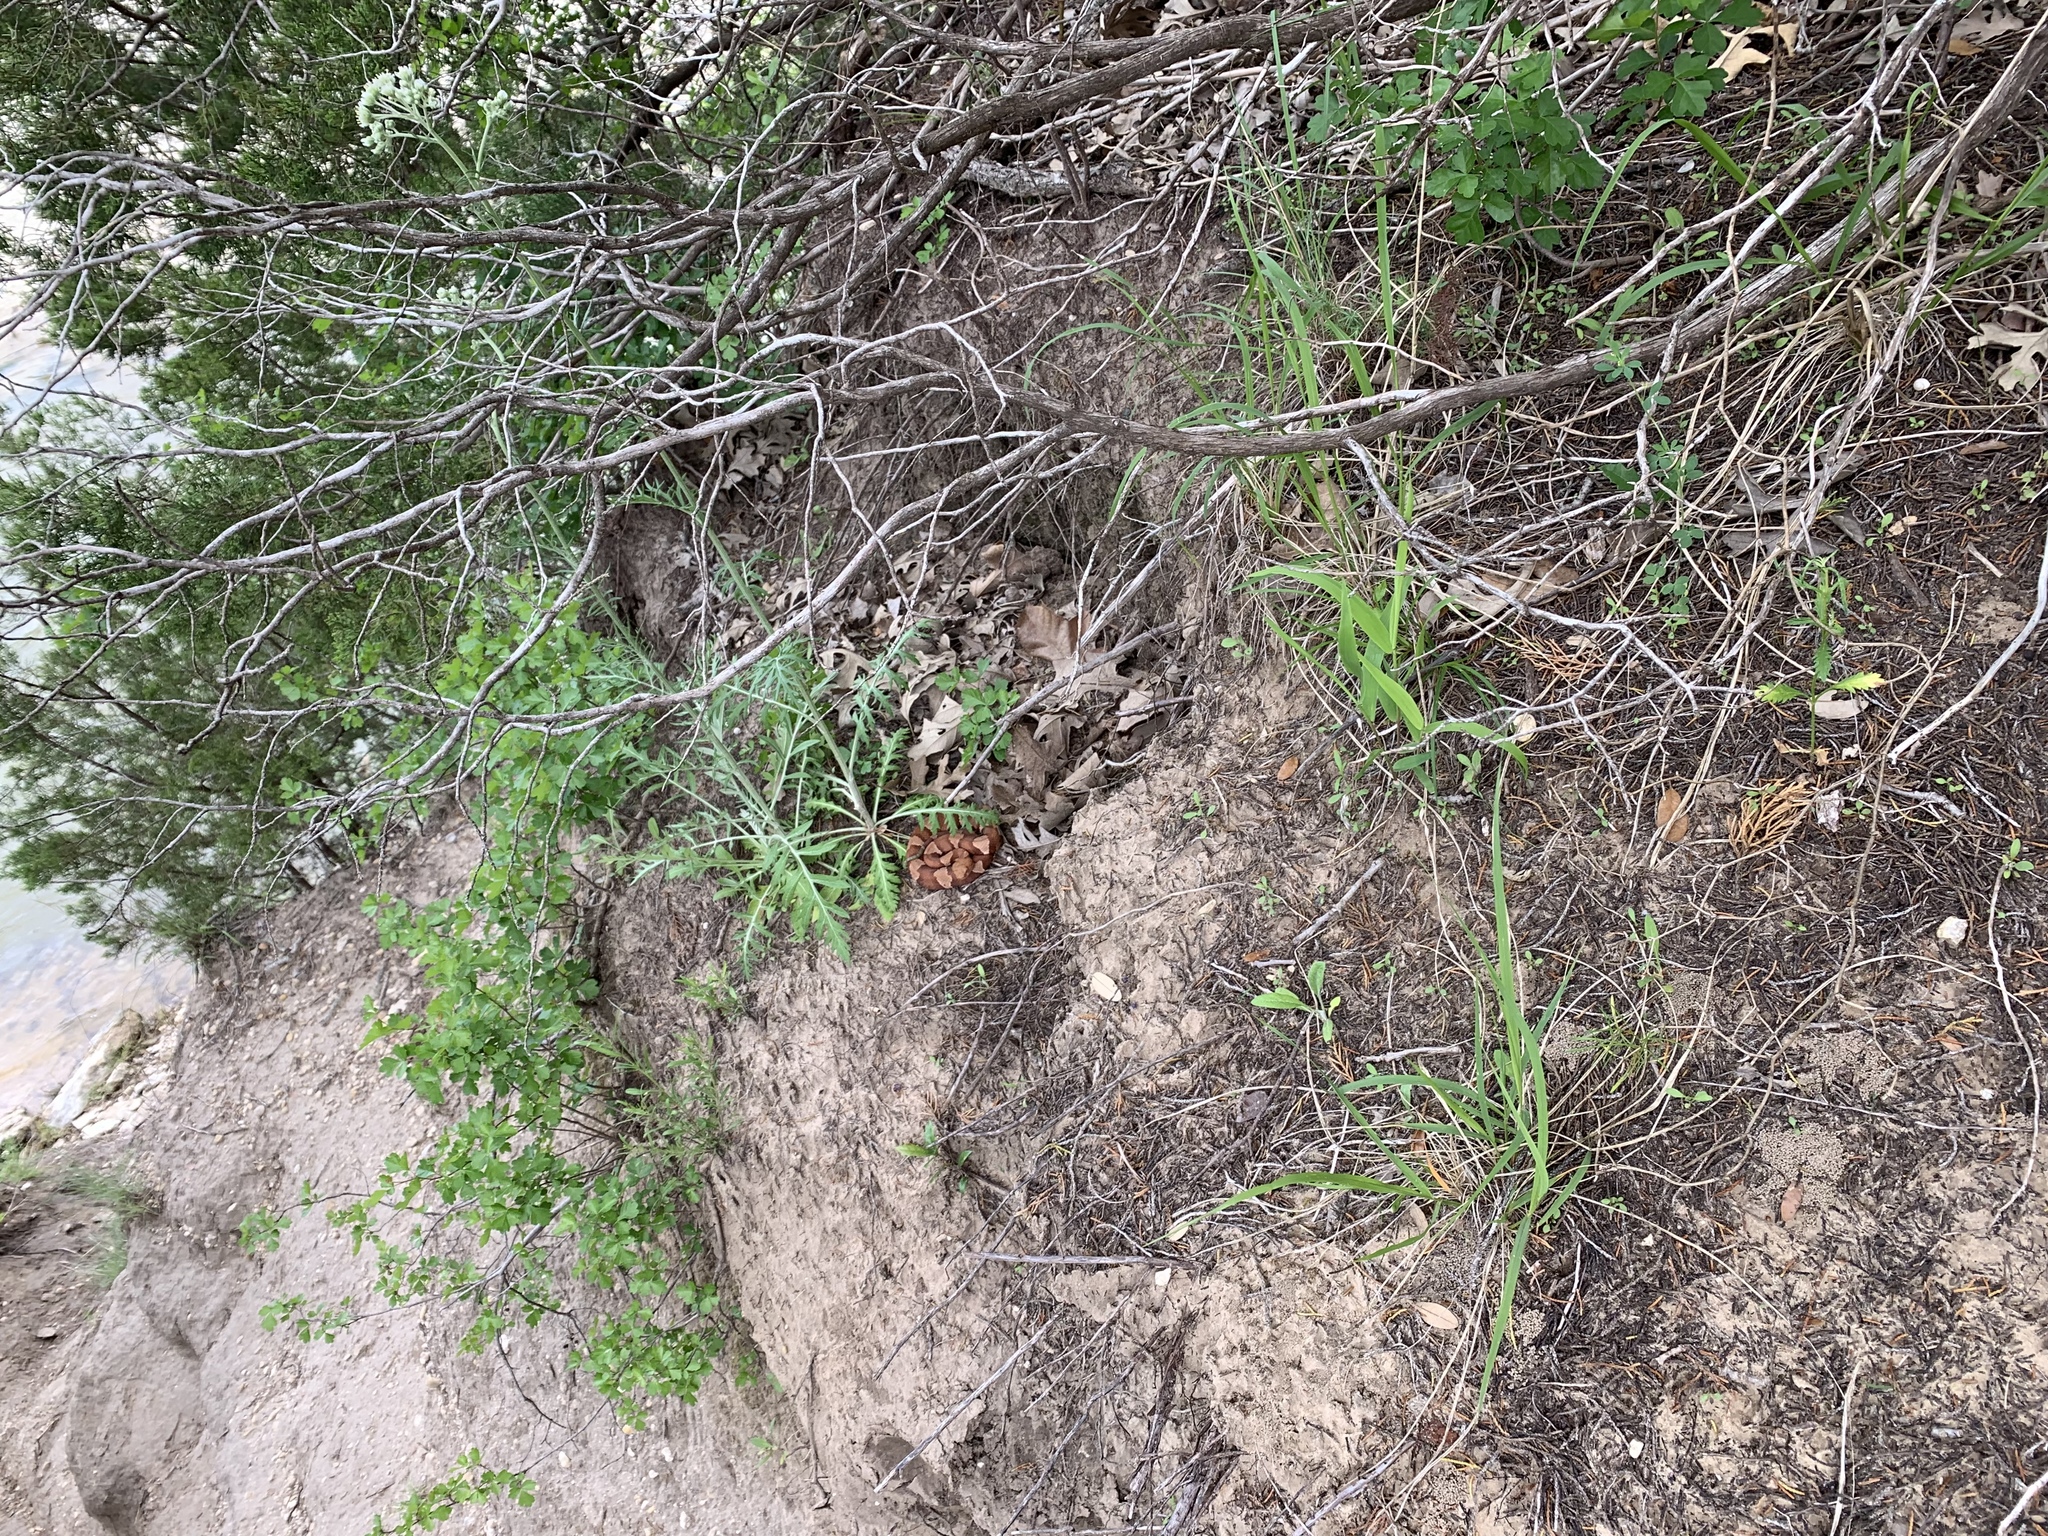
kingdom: Animalia
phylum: Chordata
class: Squamata
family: Viperidae
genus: Agkistrodon
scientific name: Agkistrodon laticinctus
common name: Broad-banded copperhead
